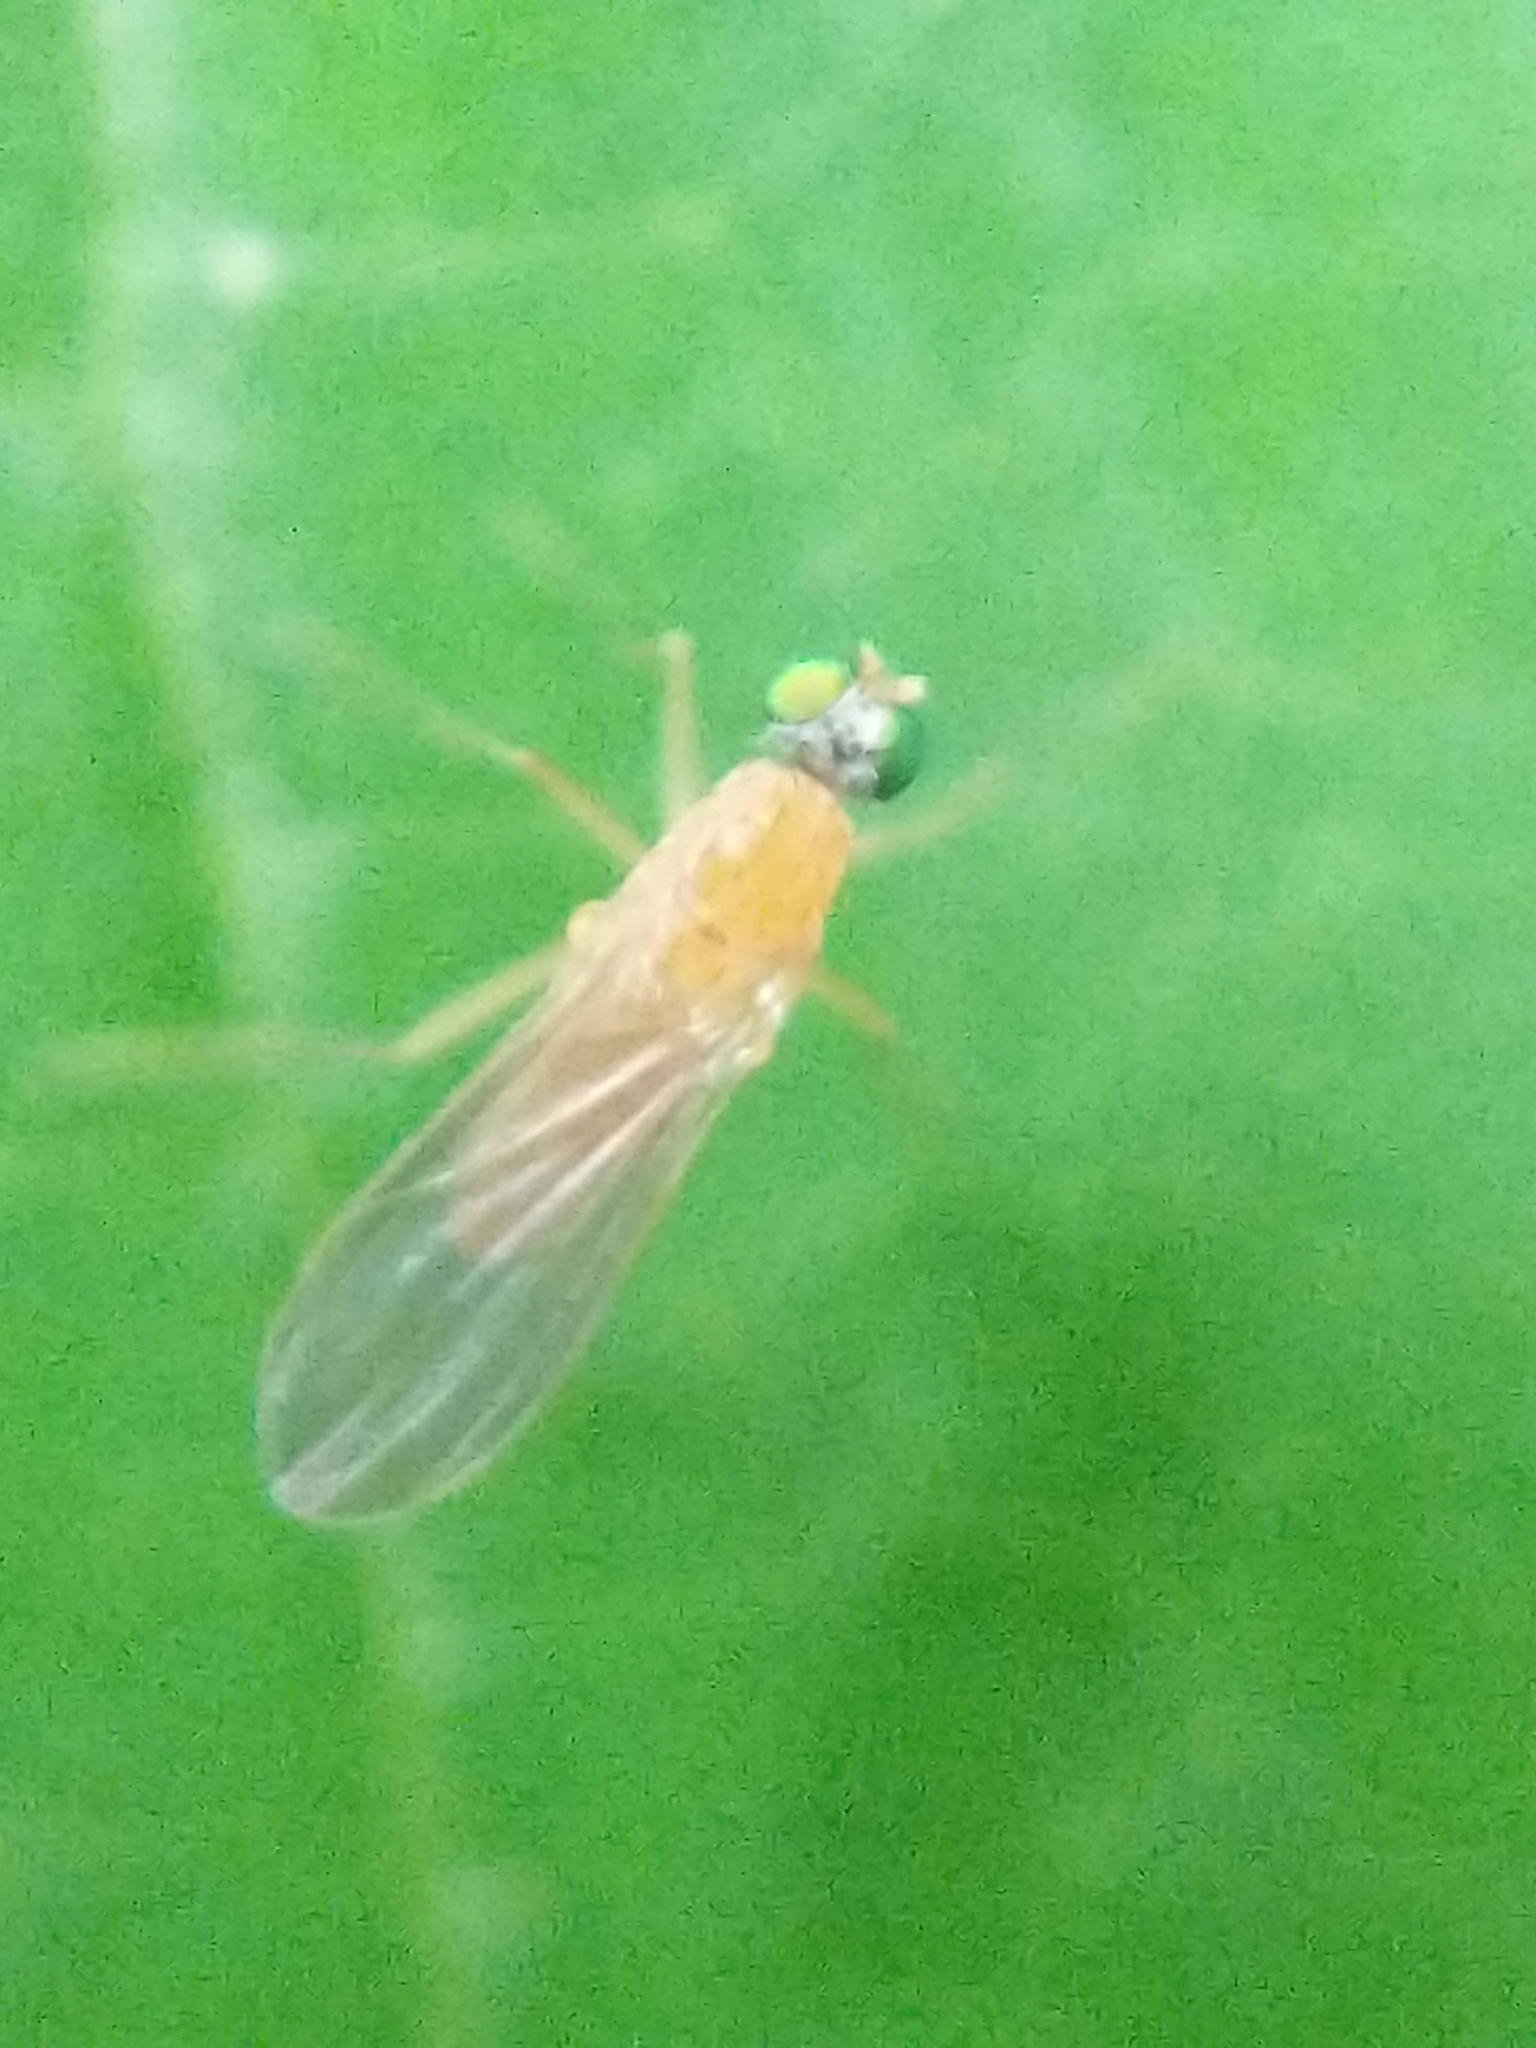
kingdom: Animalia
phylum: Arthropoda
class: Insecta
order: Diptera
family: Dolichopodidae
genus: Xanthochlorus
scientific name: Xanthochlorus helvinus
